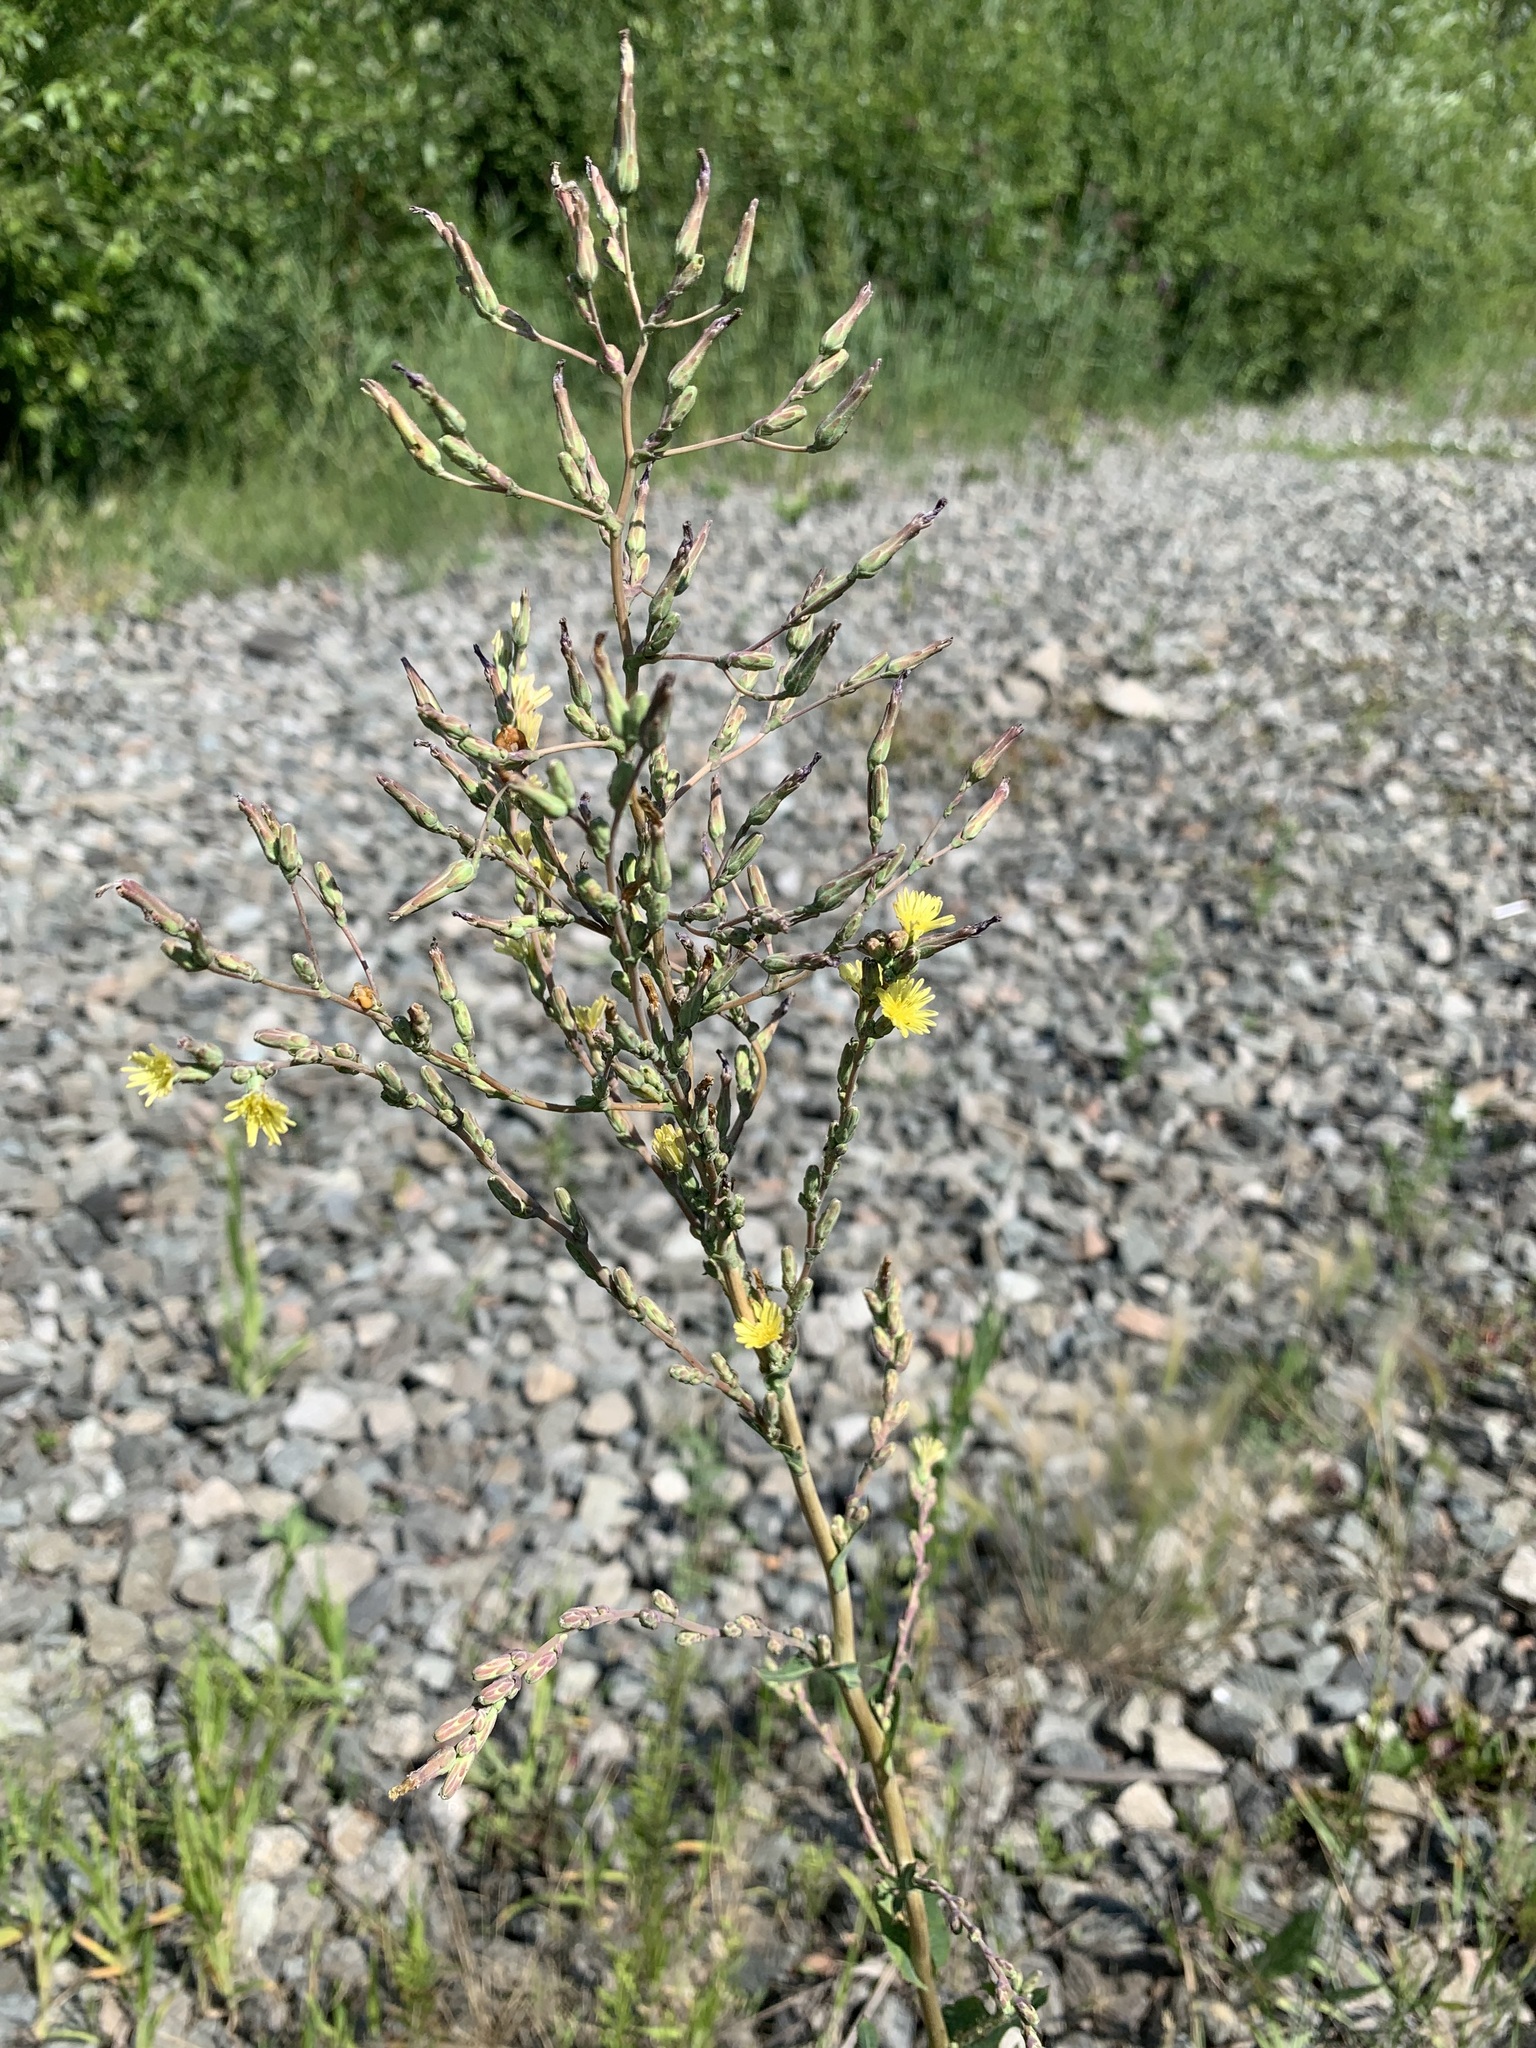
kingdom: Plantae
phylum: Tracheophyta
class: Magnoliopsida
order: Asterales
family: Asteraceae
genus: Lactuca
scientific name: Lactuca serriola
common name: Prickly lettuce
